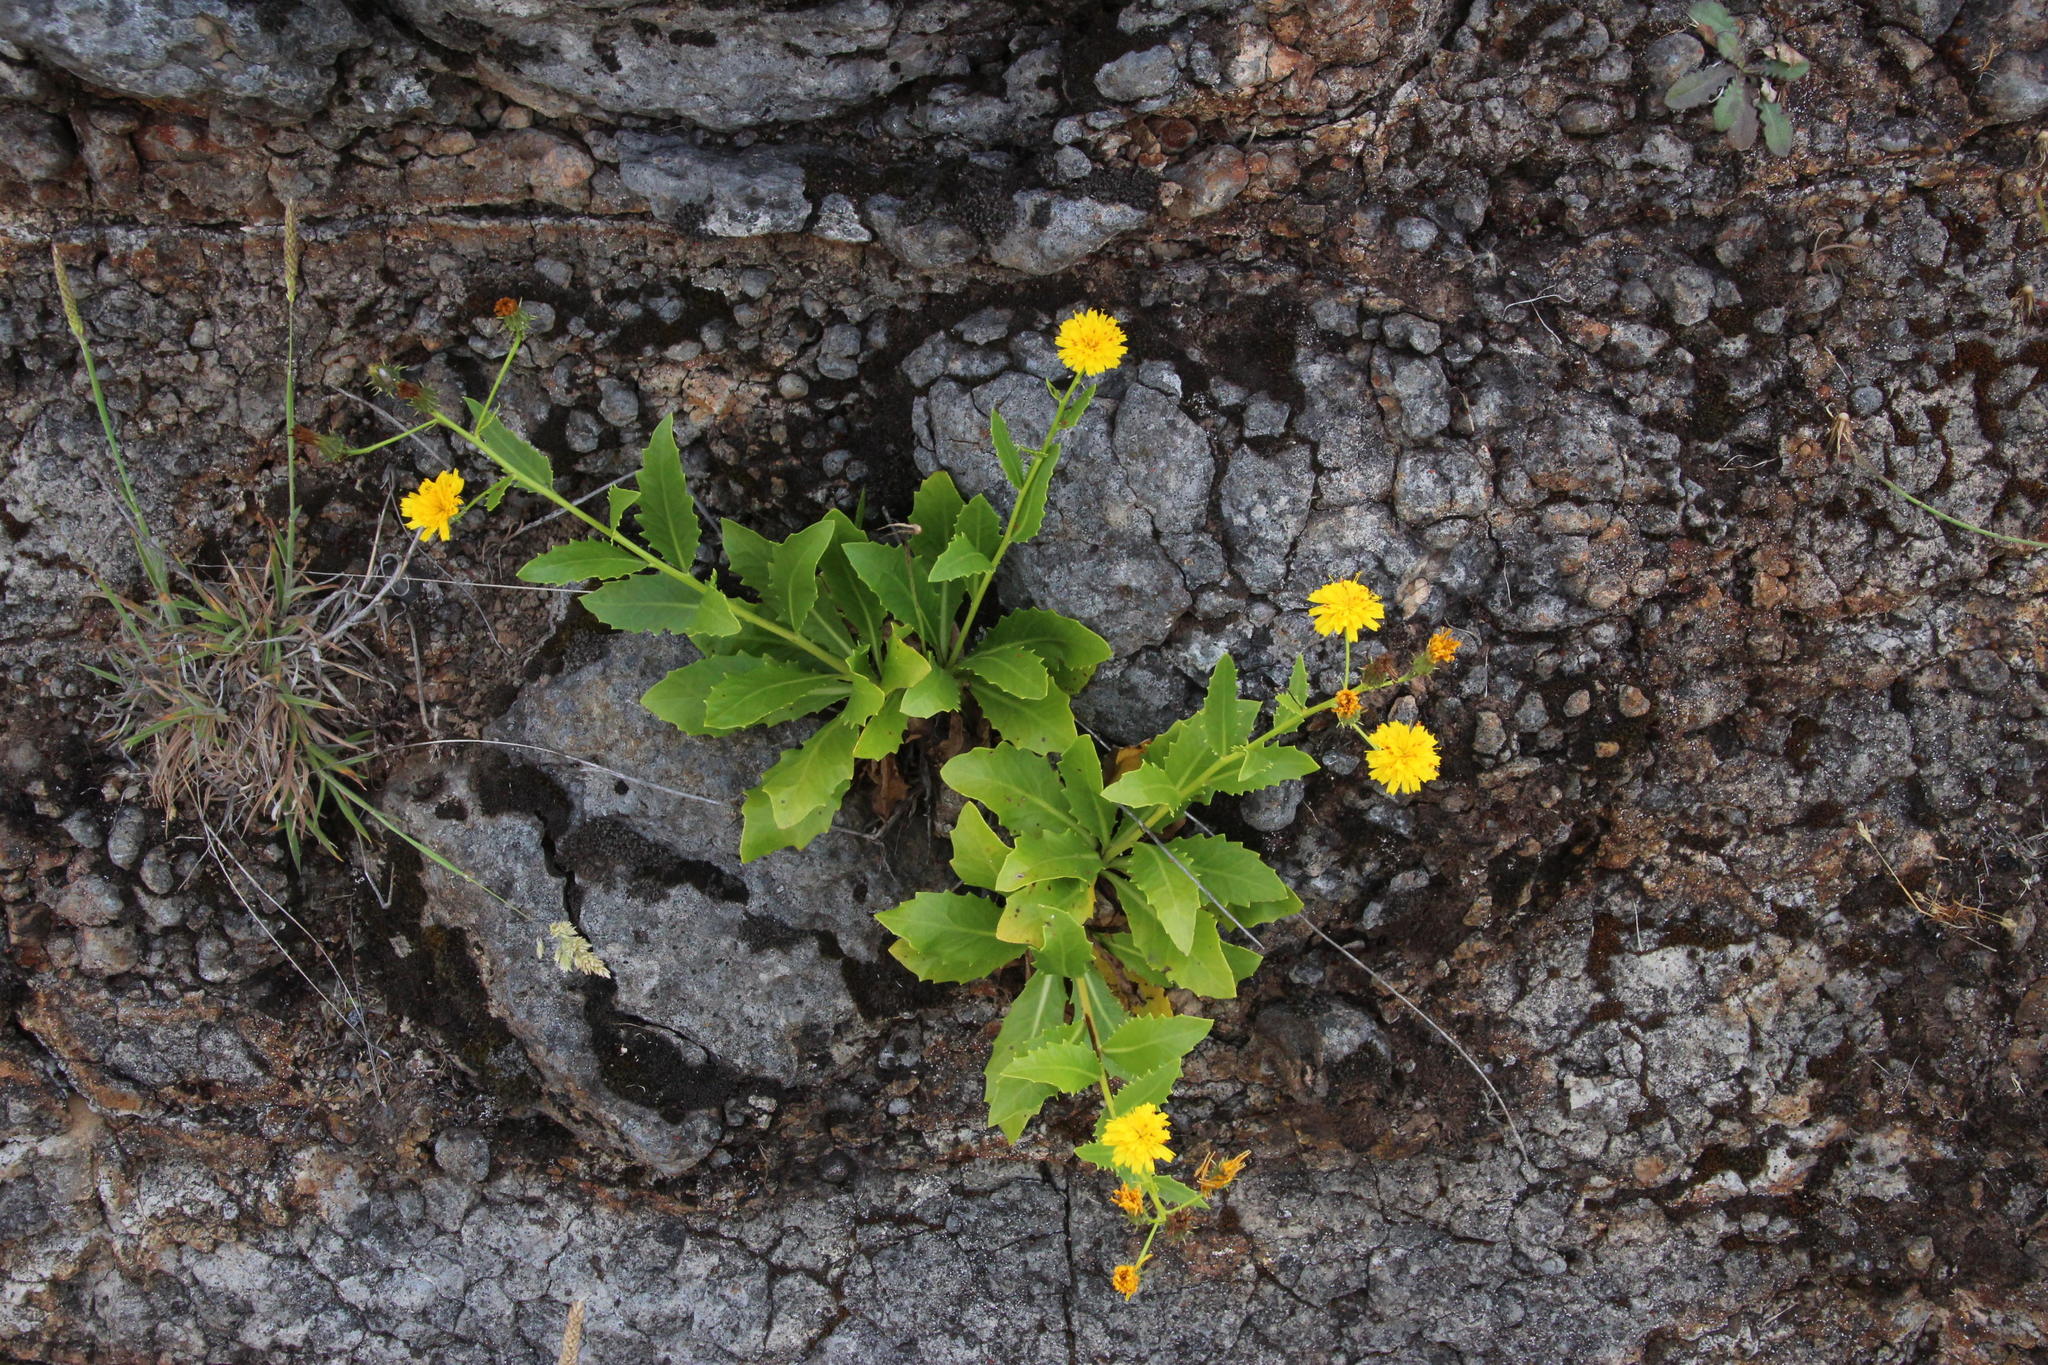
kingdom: Plantae
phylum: Tracheophyta
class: Magnoliopsida
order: Asterales
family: Asteraceae
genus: Tolpis
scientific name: Tolpis macrorhiza
